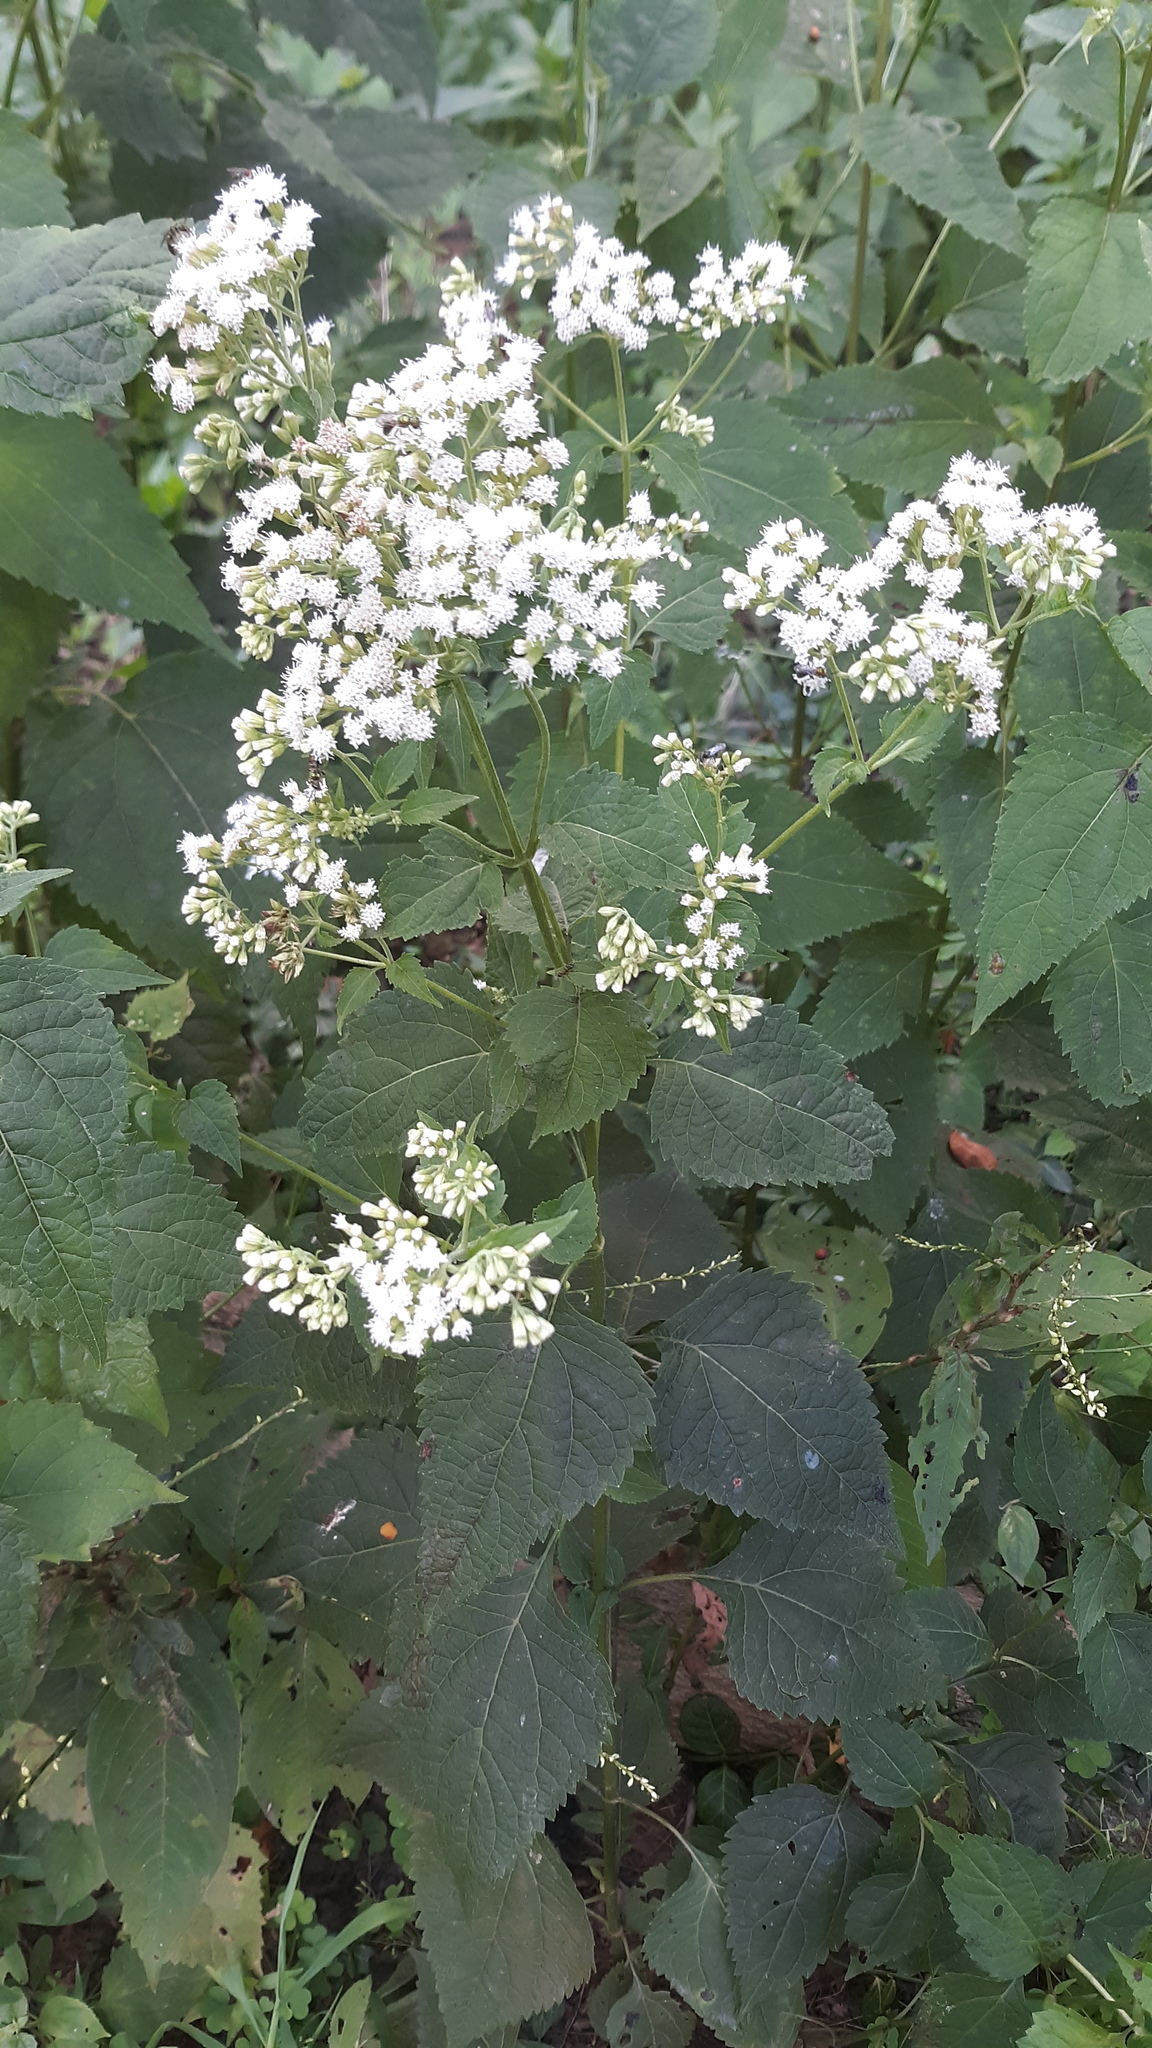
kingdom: Plantae
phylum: Tracheophyta
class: Magnoliopsida
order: Asterales
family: Asteraceae
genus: Ageratina
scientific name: Ageratina altissima
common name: White snakeroot
